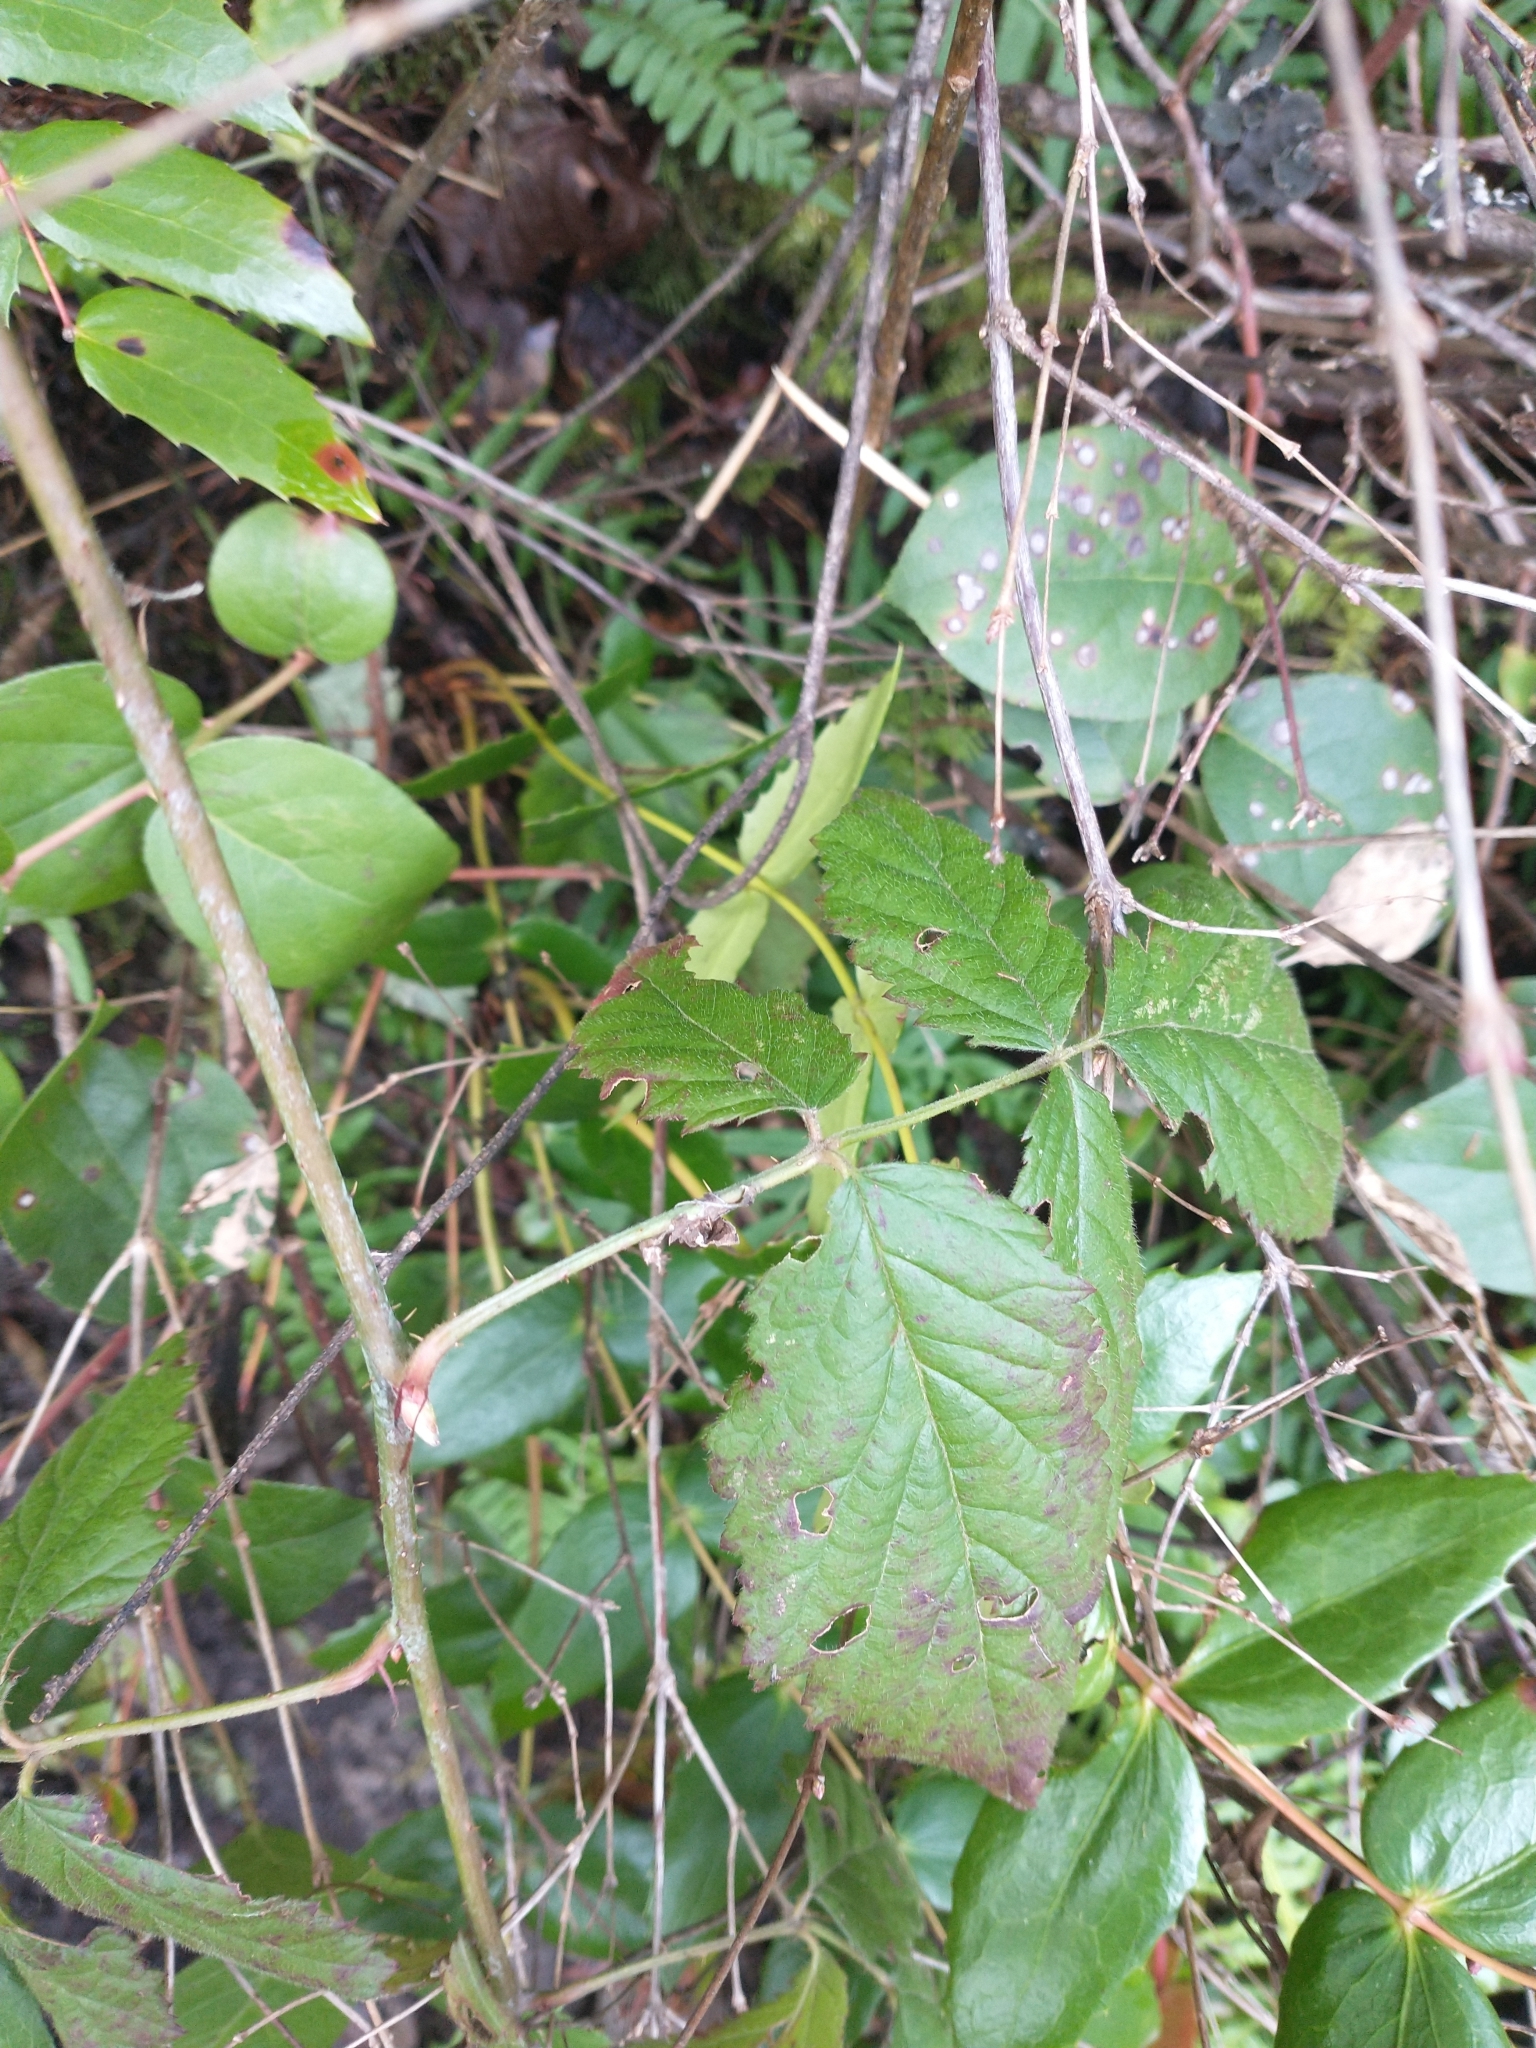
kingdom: Plantae
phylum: Tracheophyta
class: Magnoliopsida
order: Rosales
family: Rosaceae
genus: Rubus
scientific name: Rubus ursinus
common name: Pacific blackberry
